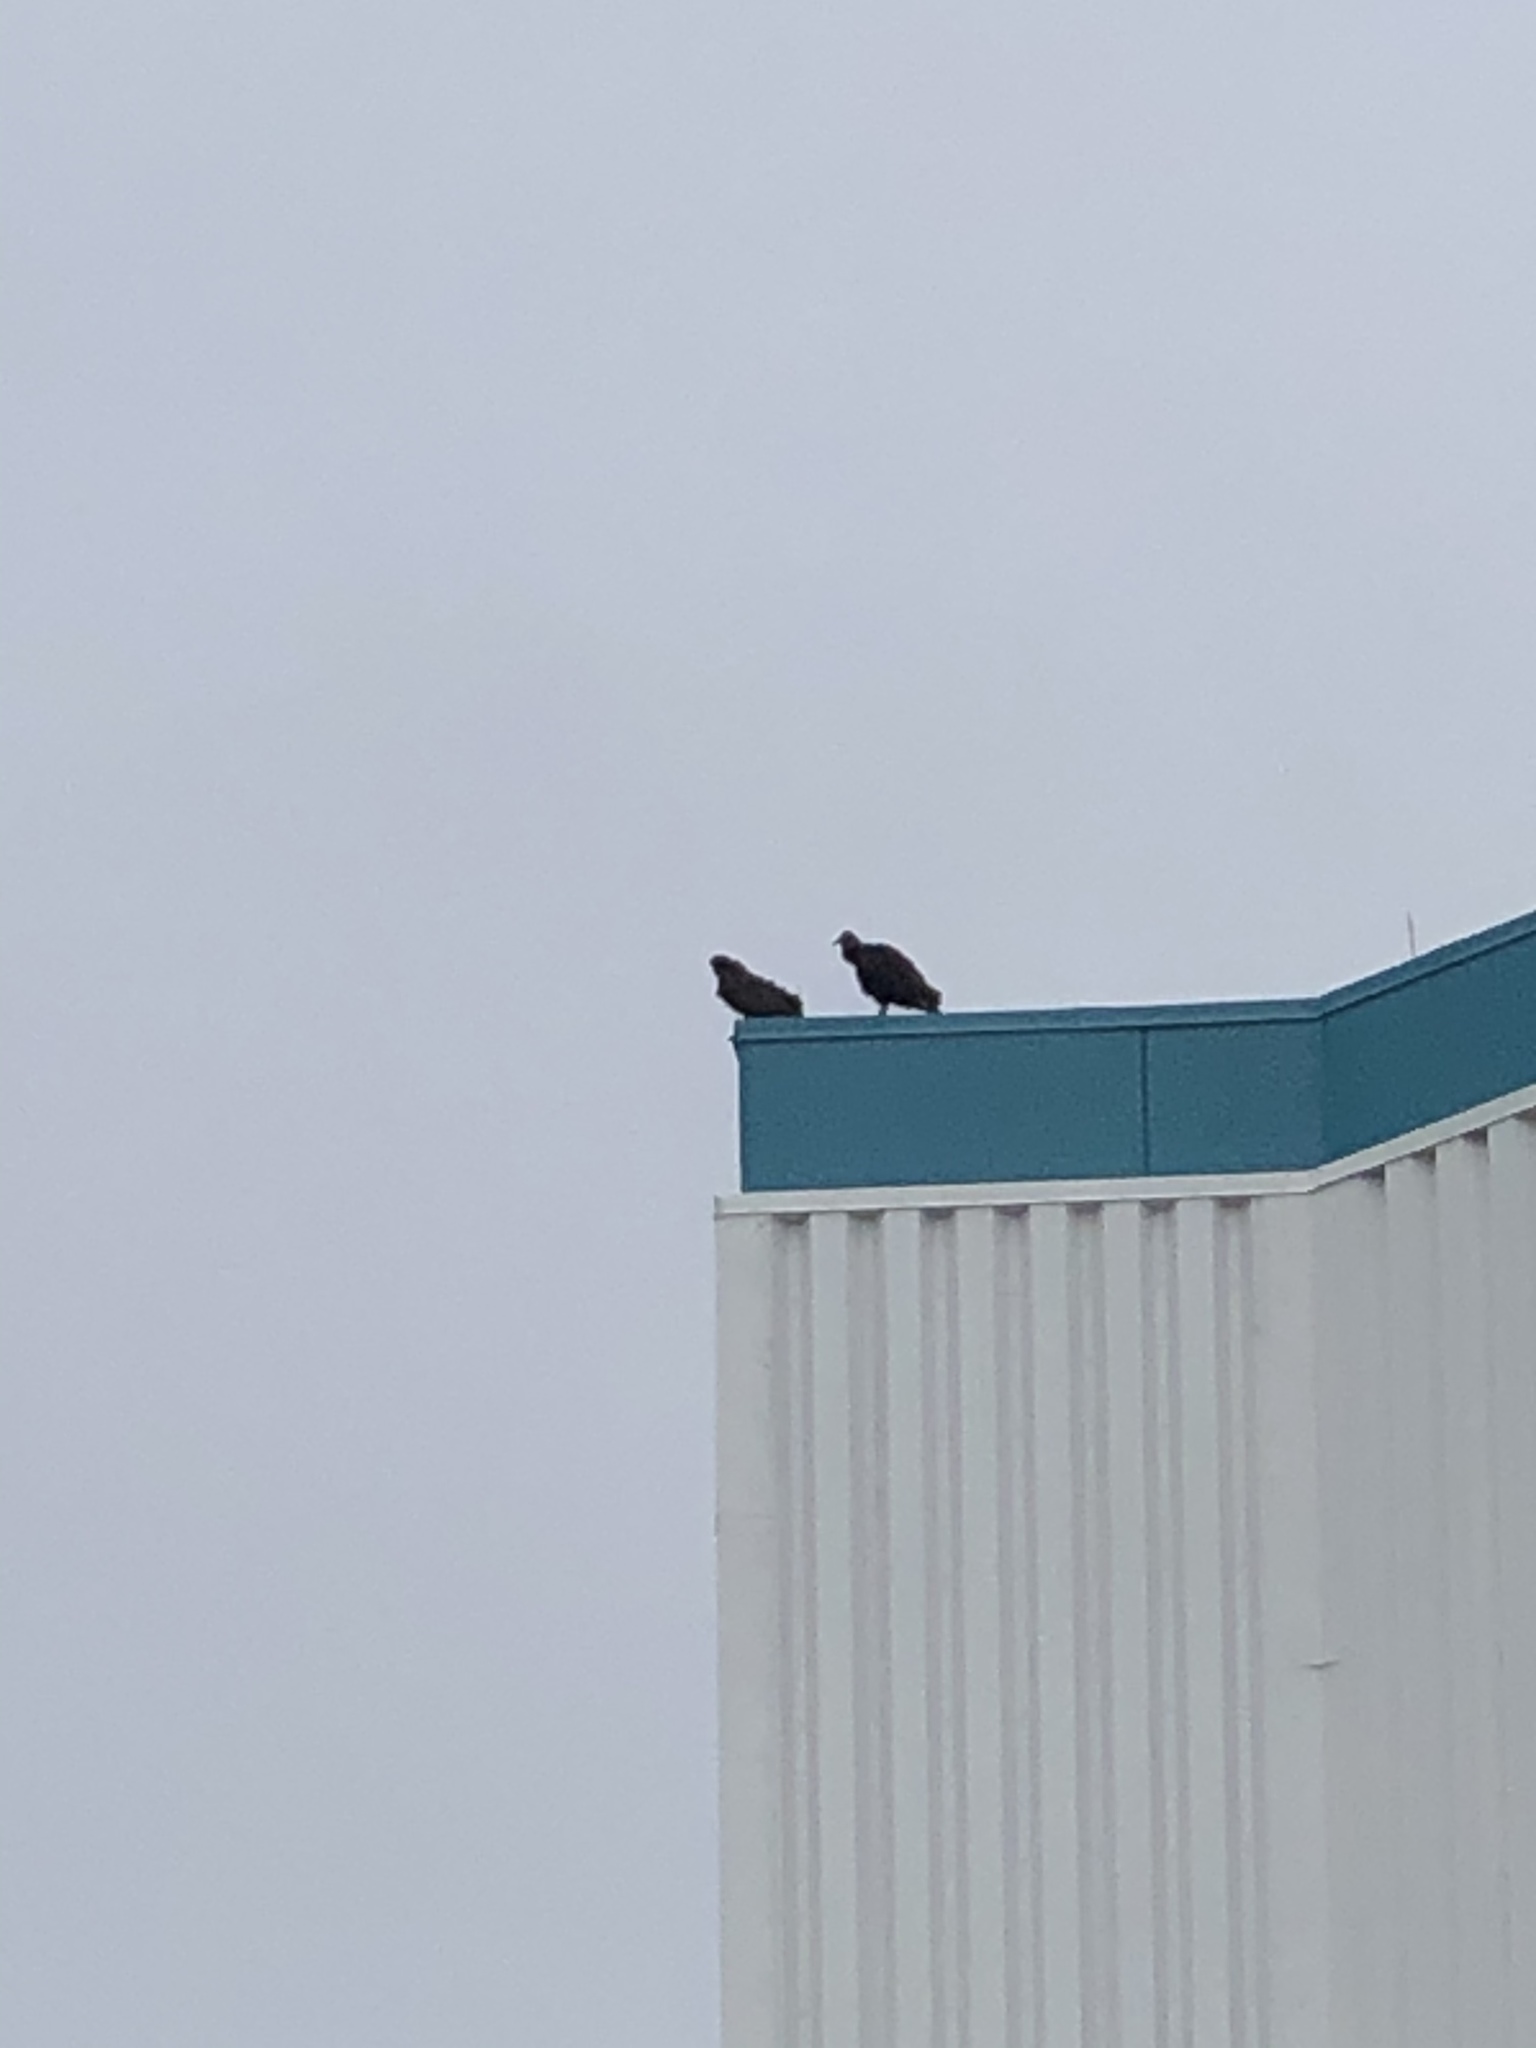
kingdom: Animalia
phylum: Chordata
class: Aves
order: Accipitriformes
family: Cathartidae
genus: Coragyps
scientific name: Coragyps atratus
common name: Black vulture
